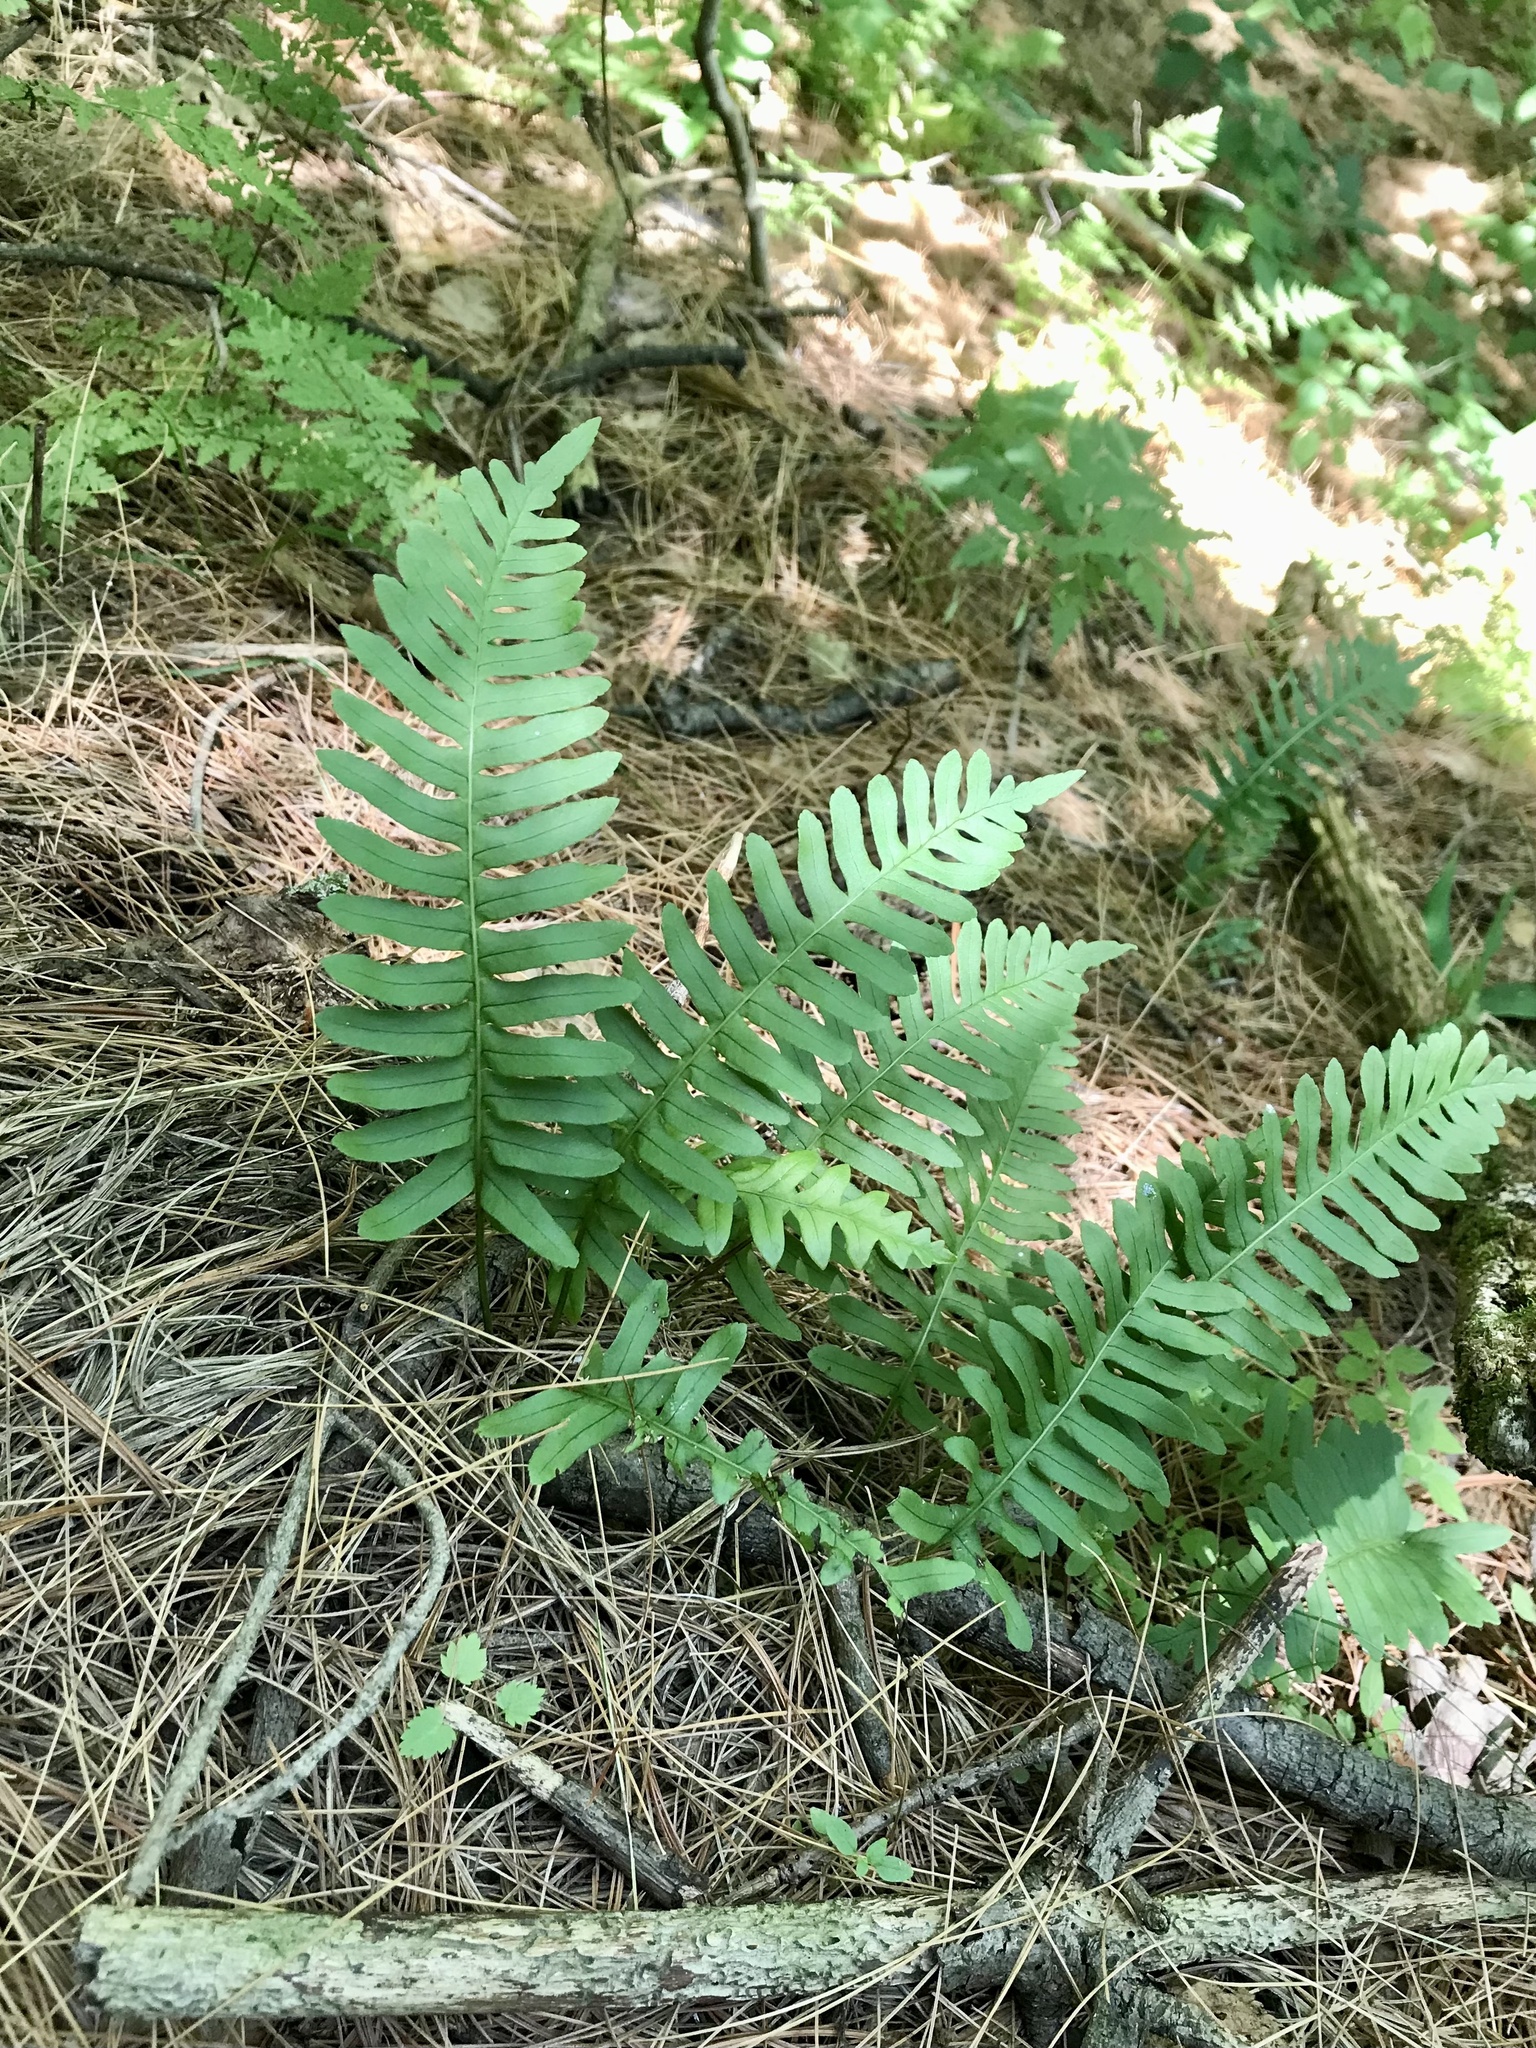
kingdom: Plantae
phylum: Tracheophyta
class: Polypodiopsida
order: Polypodiales
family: Polypodiaceae
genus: Polypodium
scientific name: Polypodium virginianum
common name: American wall fern
